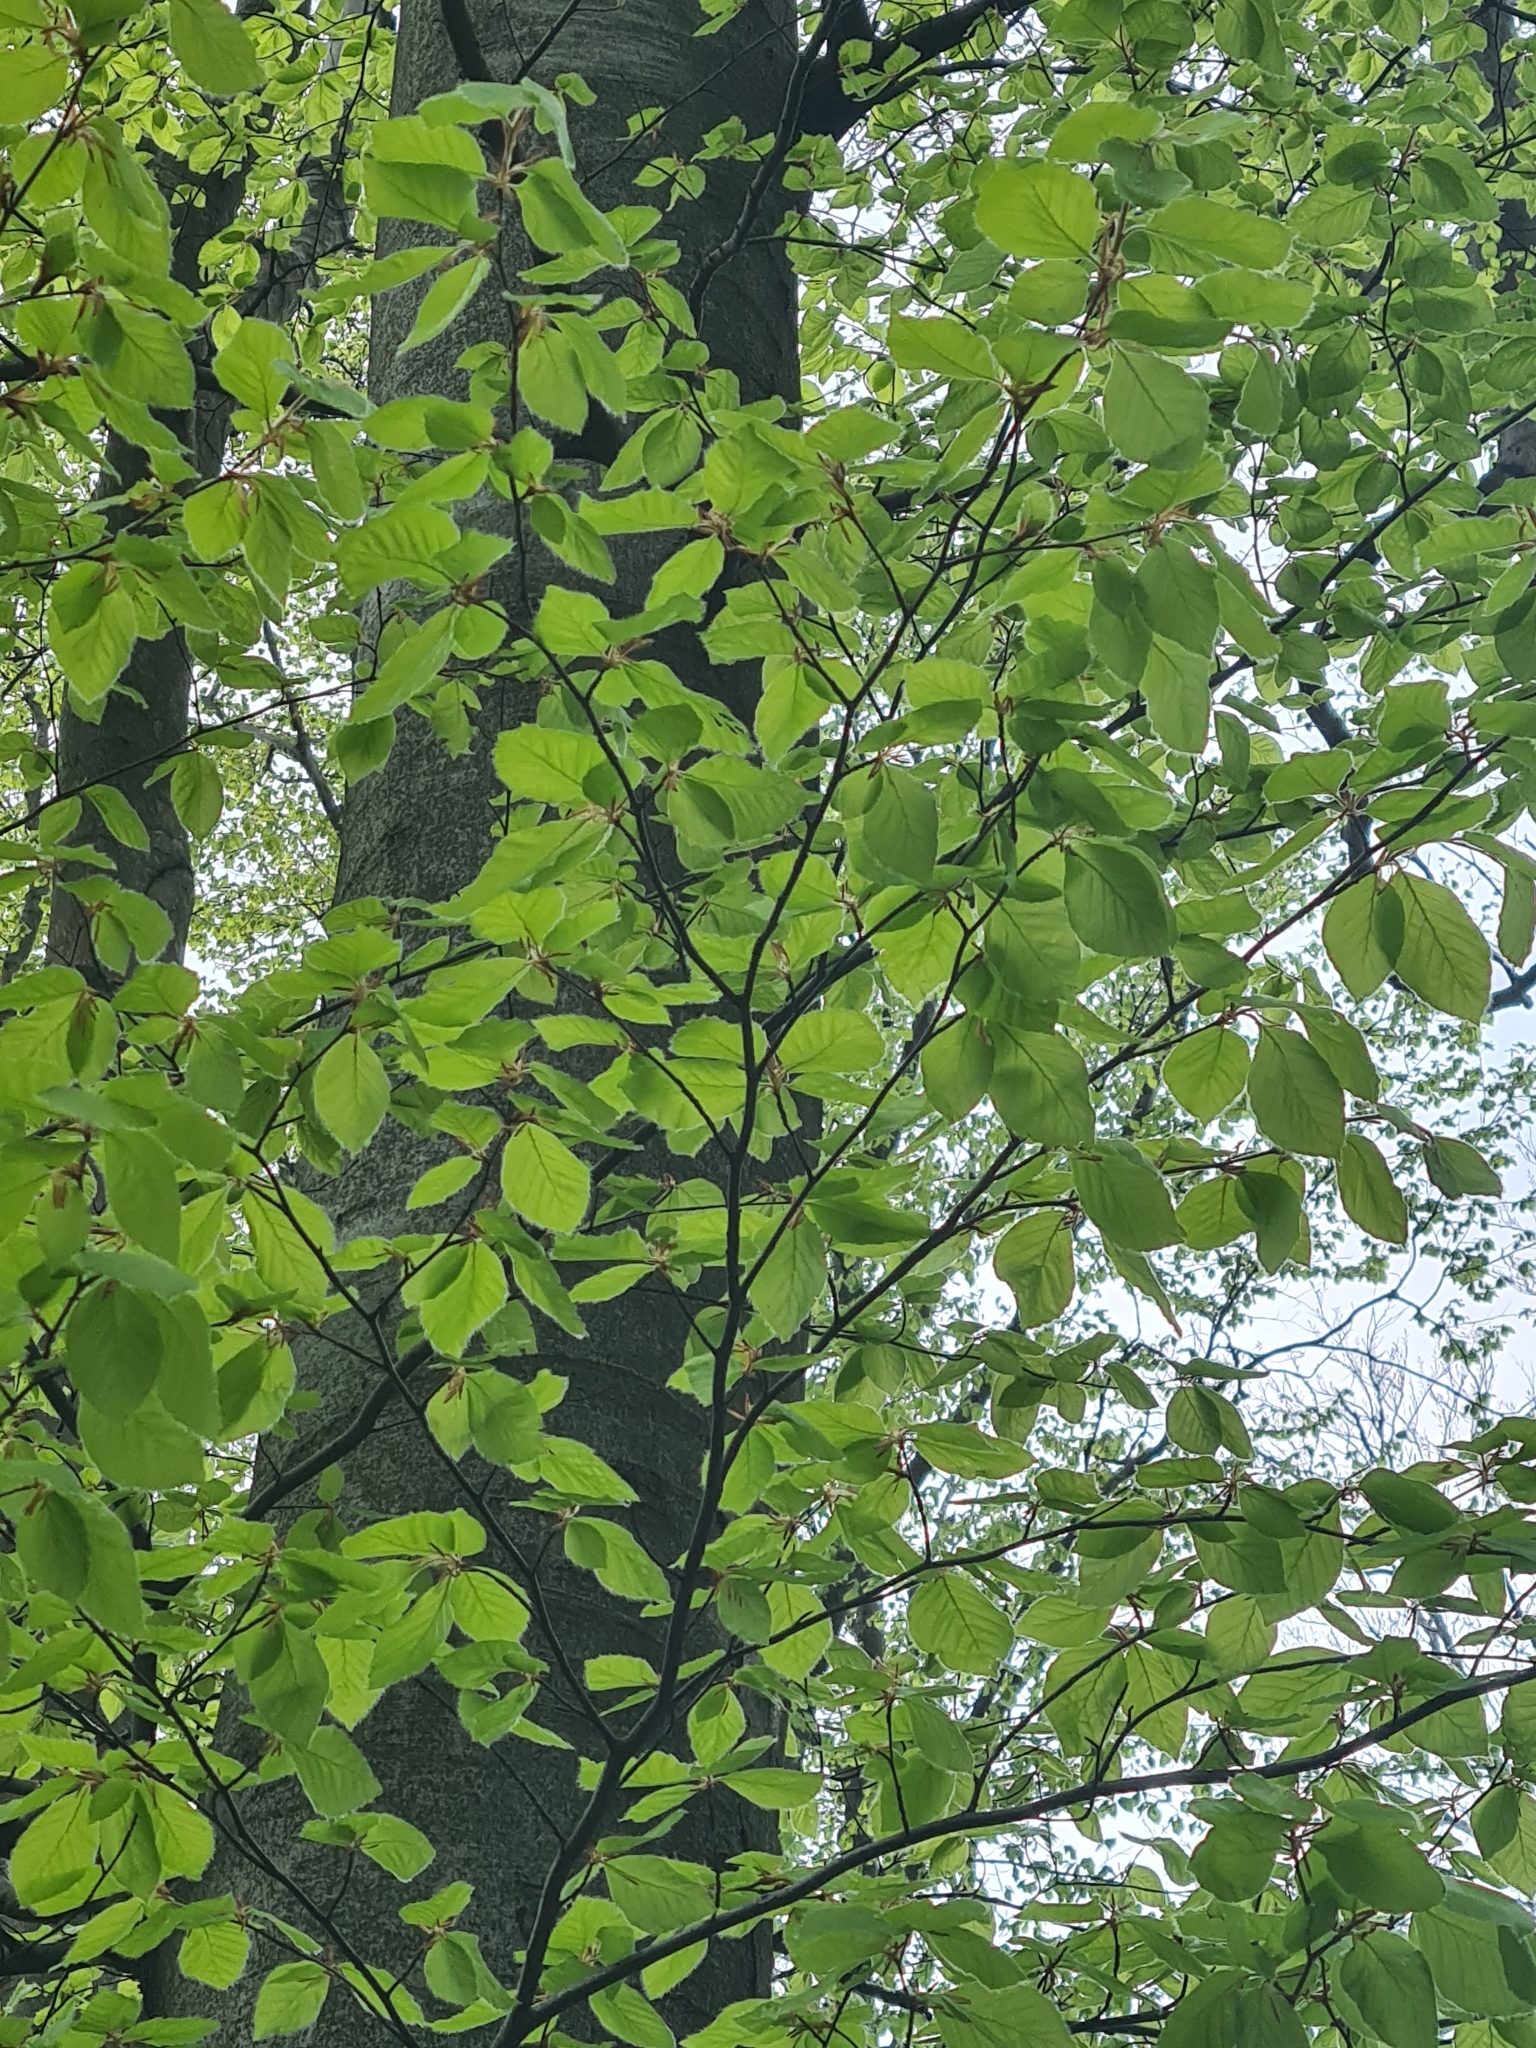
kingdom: Plantae
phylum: Tracheophyta
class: Magnoliopsida
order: Fagales
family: Fagaceae
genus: Fagus
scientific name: Fagus sylvatica
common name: Beech
